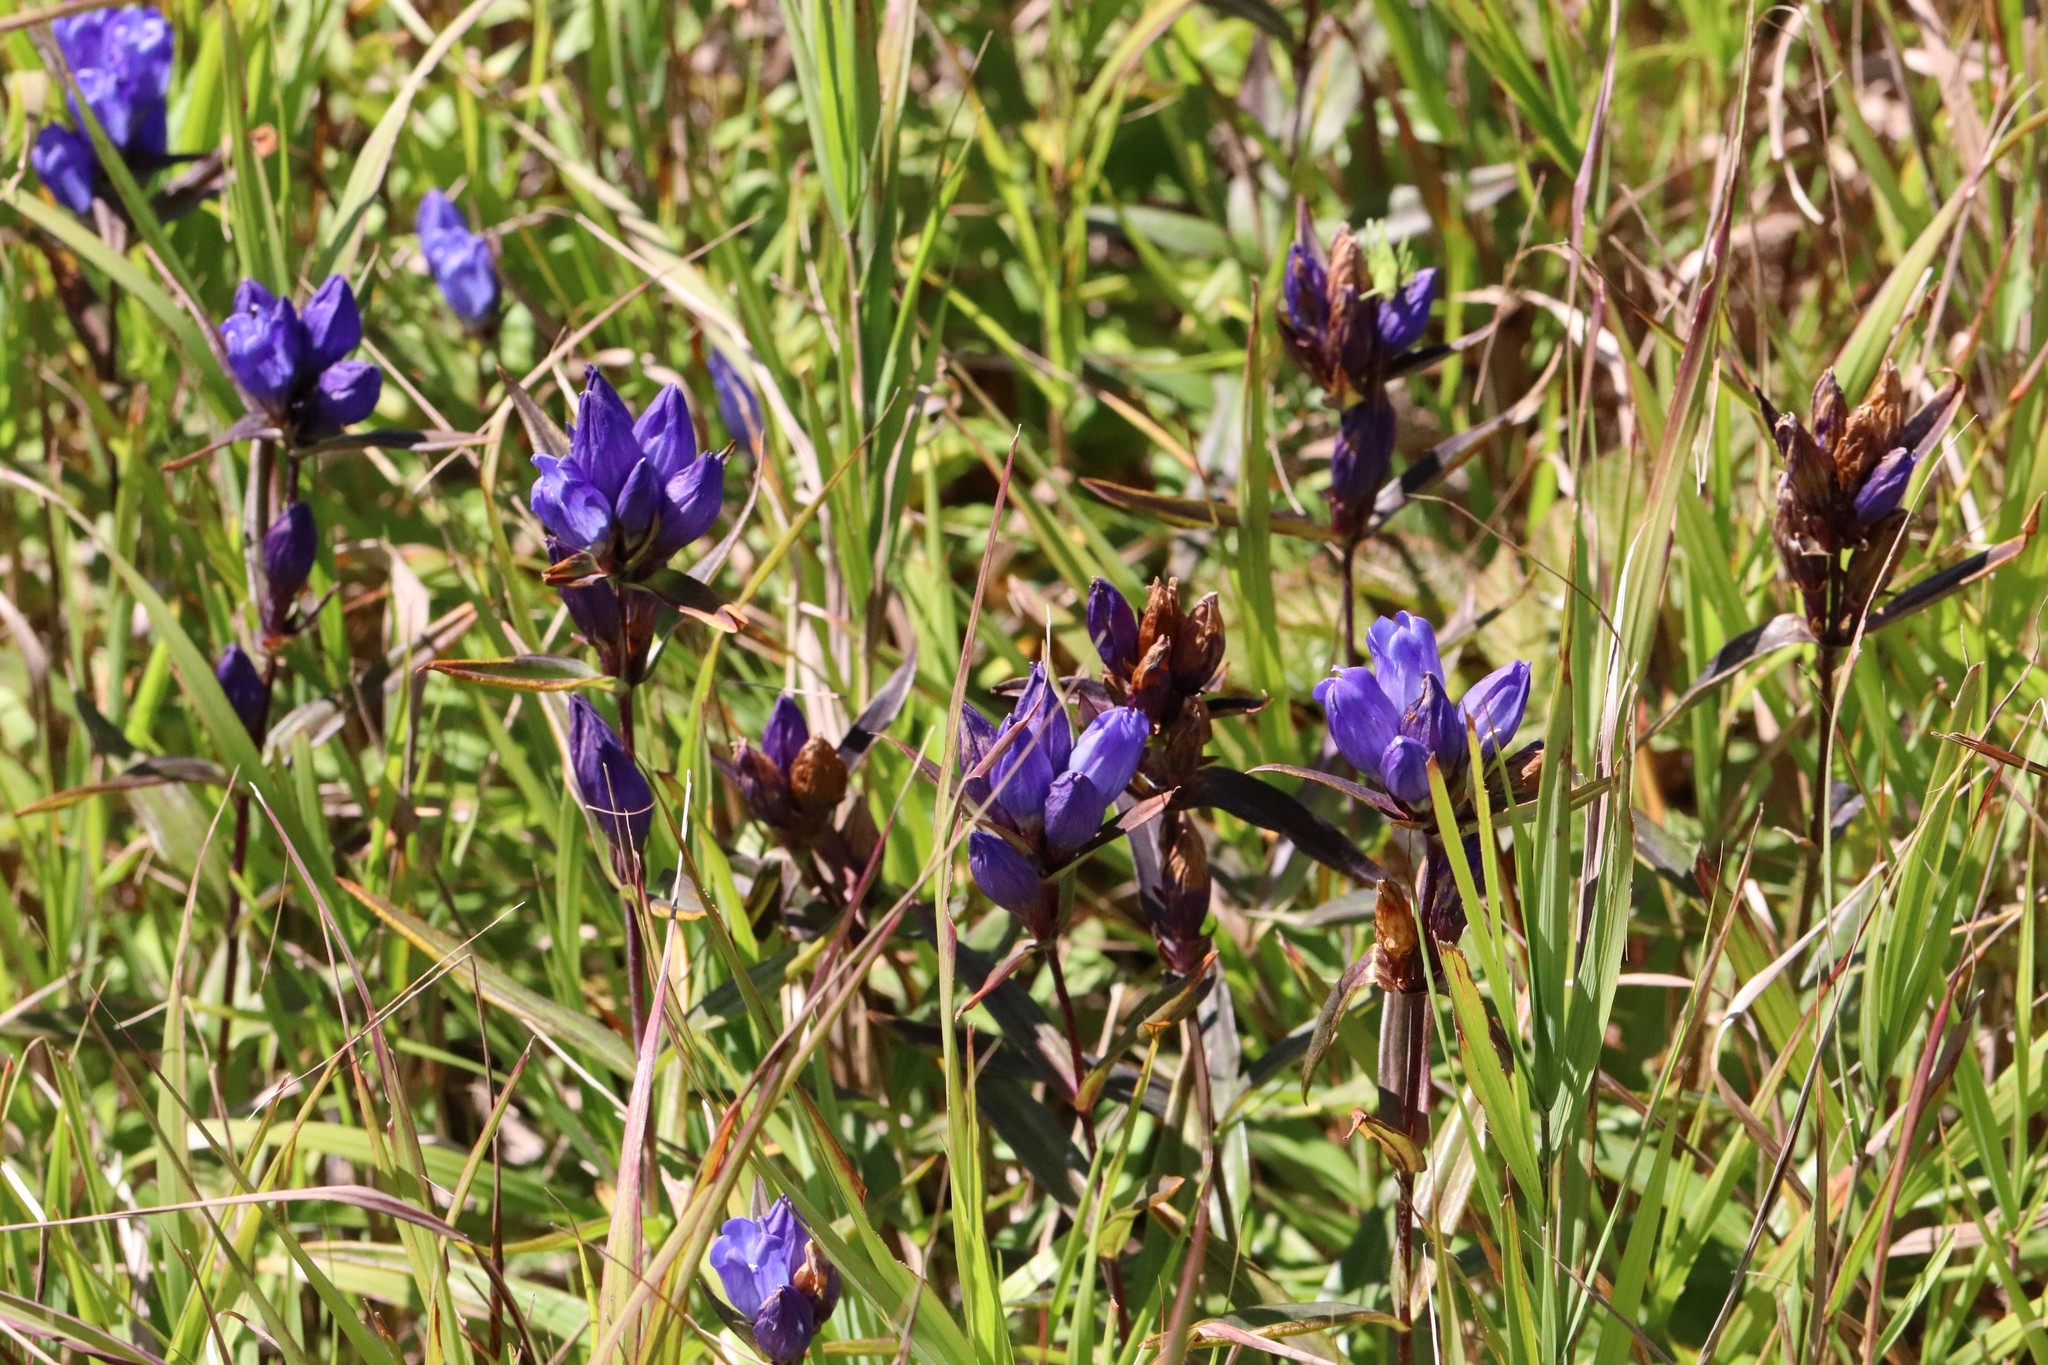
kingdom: Plantae
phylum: Tracheophyta
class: Magnoliopsida
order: Gentianales
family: Gentianaceae
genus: Gentiana
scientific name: Gentiana triflora
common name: Three-flower gentian
